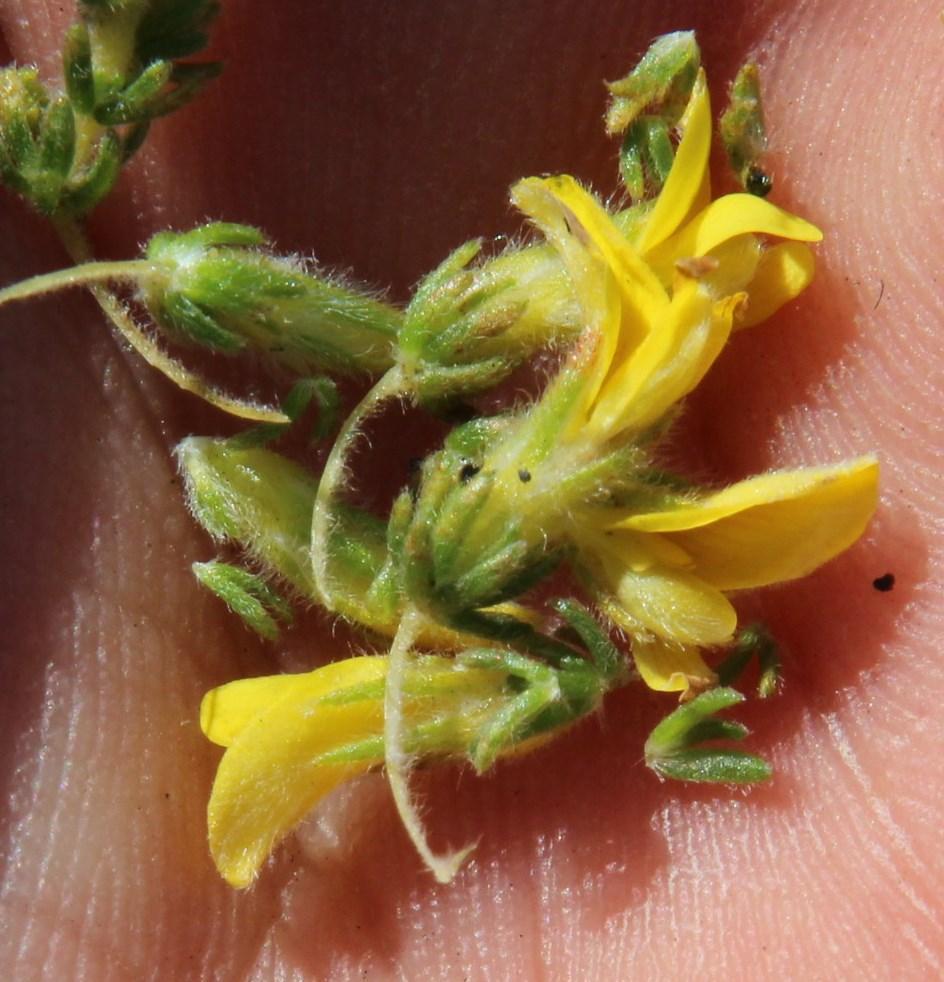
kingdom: Plantae
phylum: Tracheophyta
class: Magnoliopsida
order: Fabales
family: Fabaceae
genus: Aspalathus
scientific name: Aspalathus ericifolia
